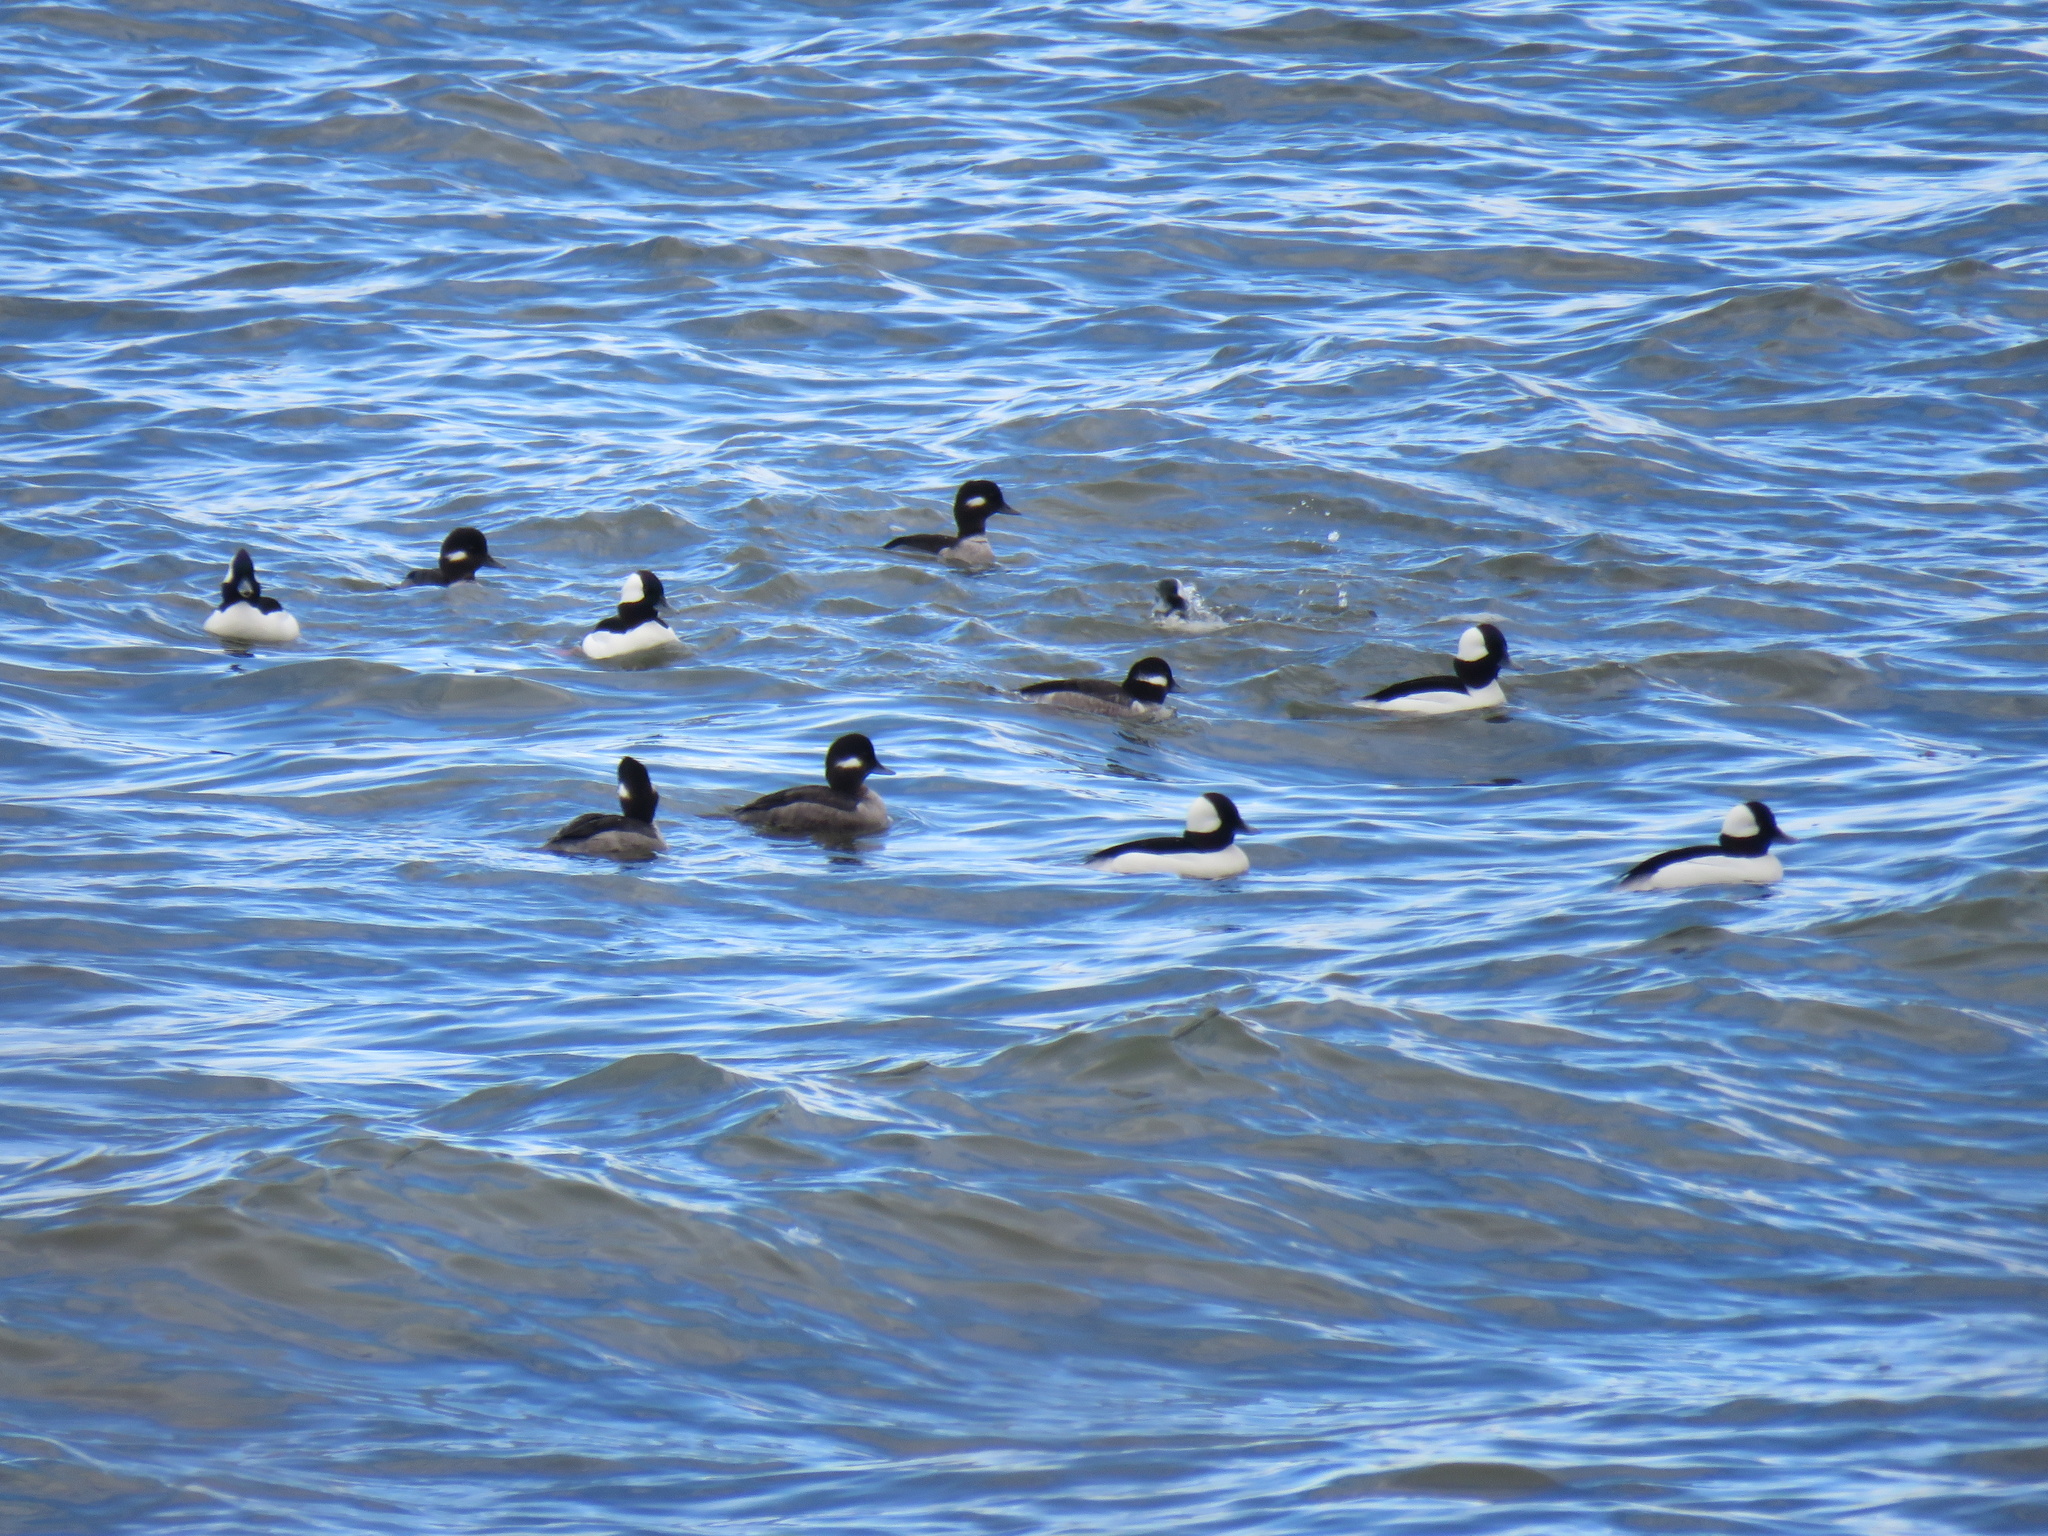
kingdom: Animalia
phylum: Chordata
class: Aves
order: Anseriformes
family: Anatidae
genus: Bucephala
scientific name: Bucephala albeola
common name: Bufflehead
